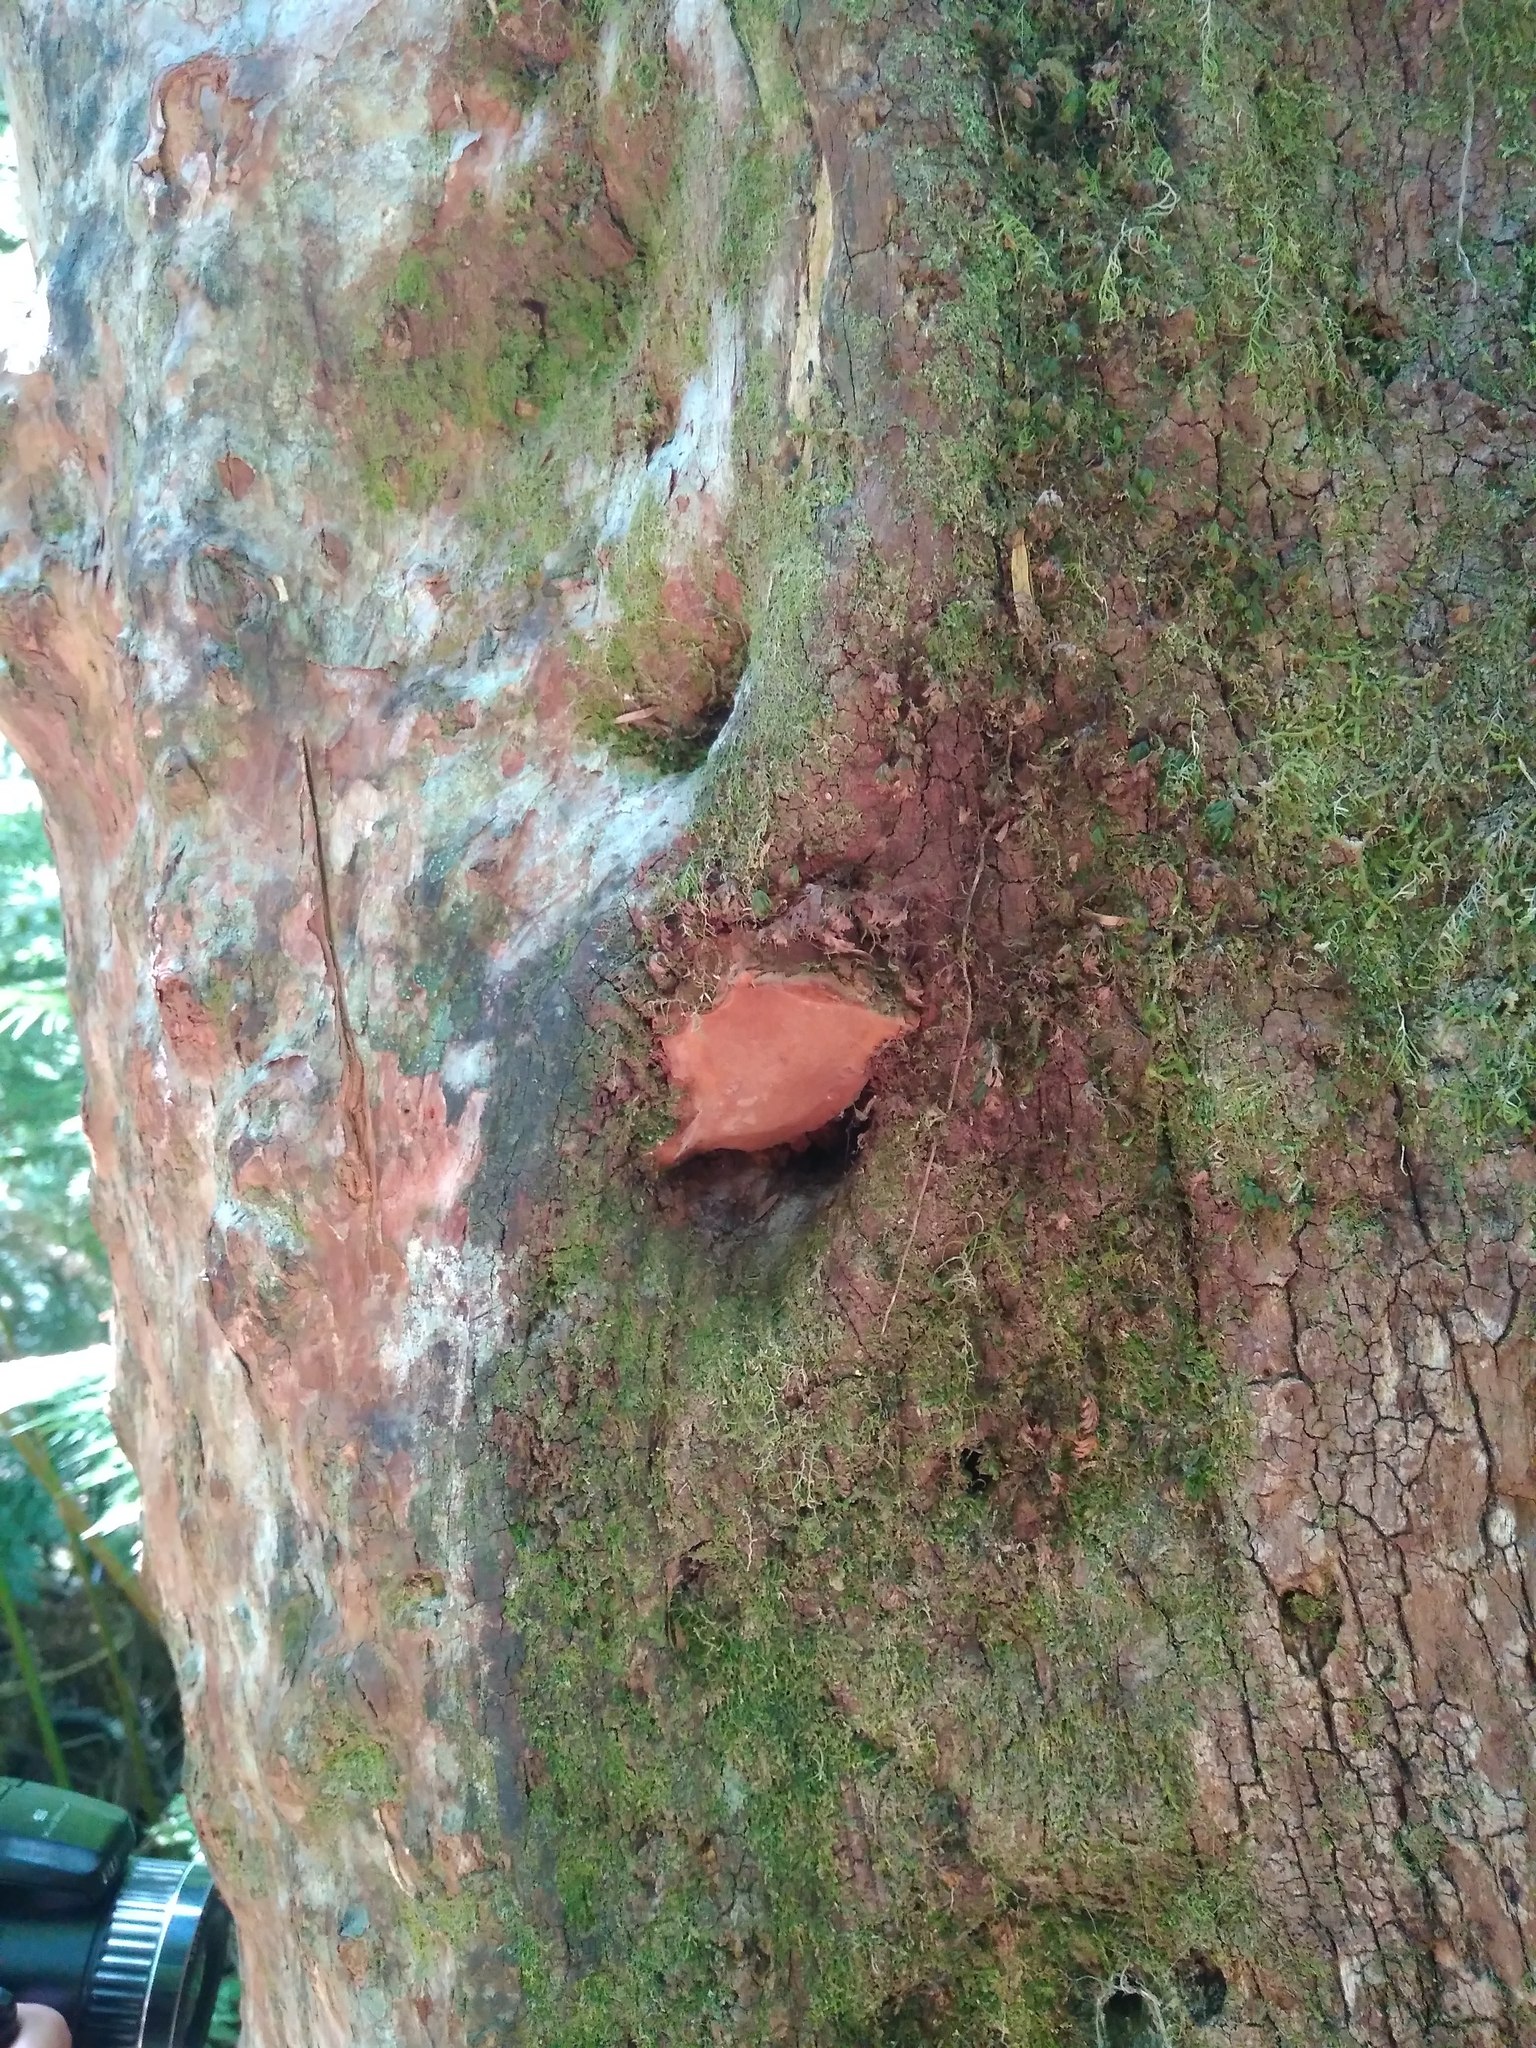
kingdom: Fungi
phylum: Basidiomycota
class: Agaricomycetes
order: Hymenochaetales
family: Hymenochaetaceae
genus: Fuscoporia
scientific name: Fuscoporia senex
